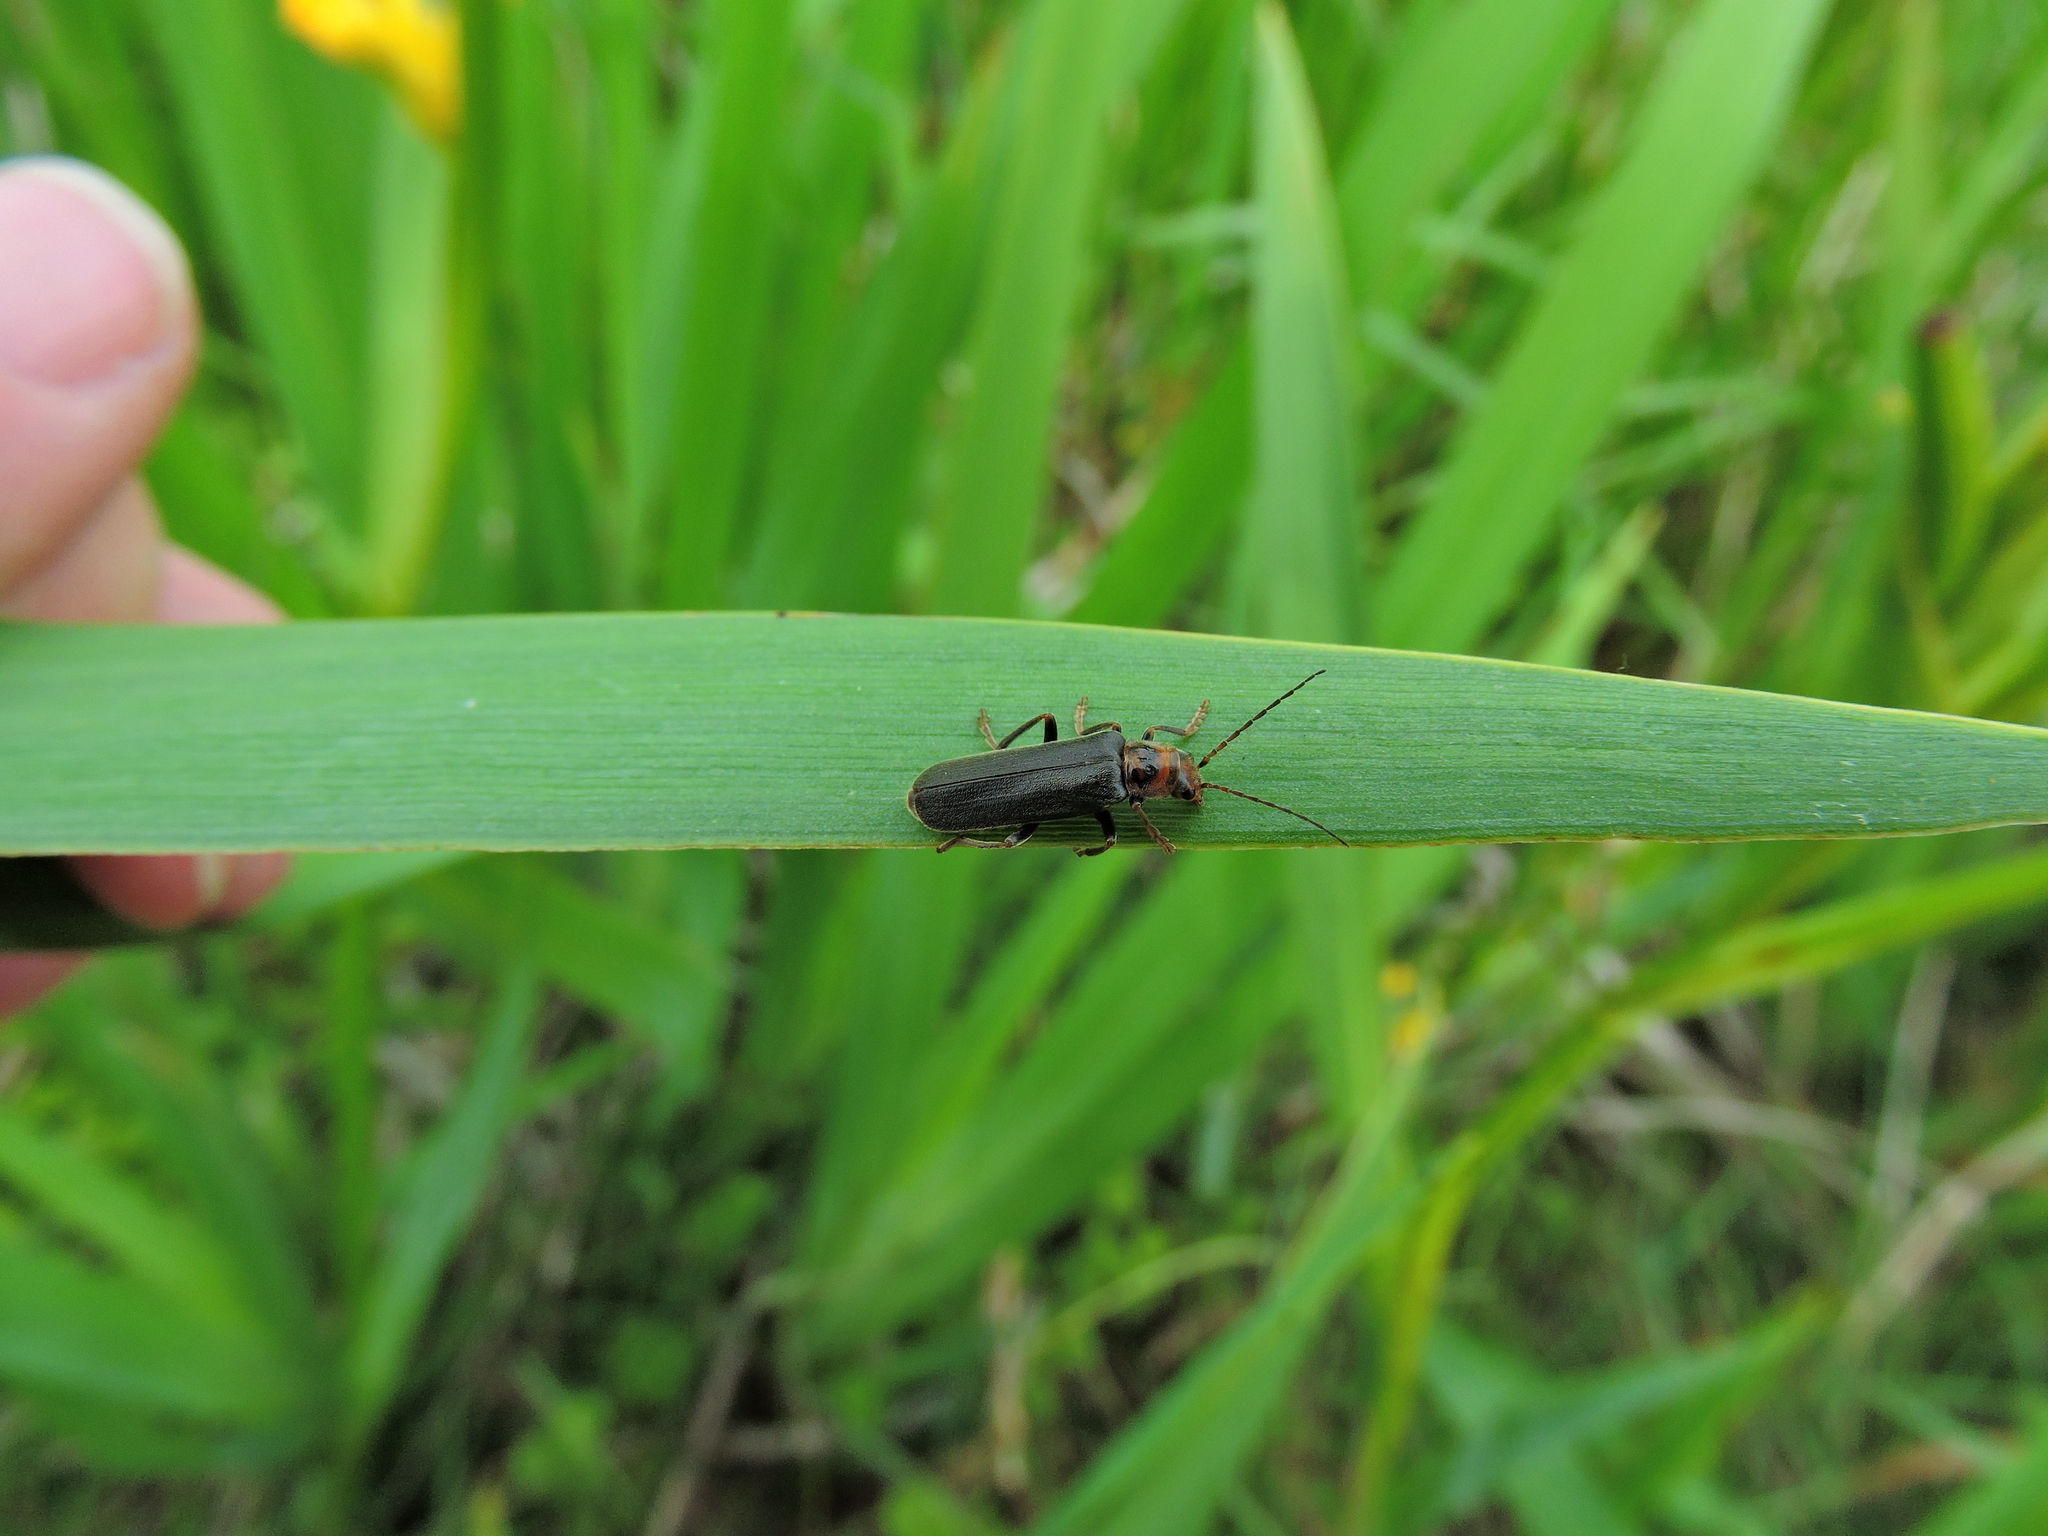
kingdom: Animalia
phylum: Arthropoda
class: Insecta
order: Coleoptera
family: Cantharidae
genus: Cantharis
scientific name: Cantharis rufa
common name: Red-spotted soldier beetle
